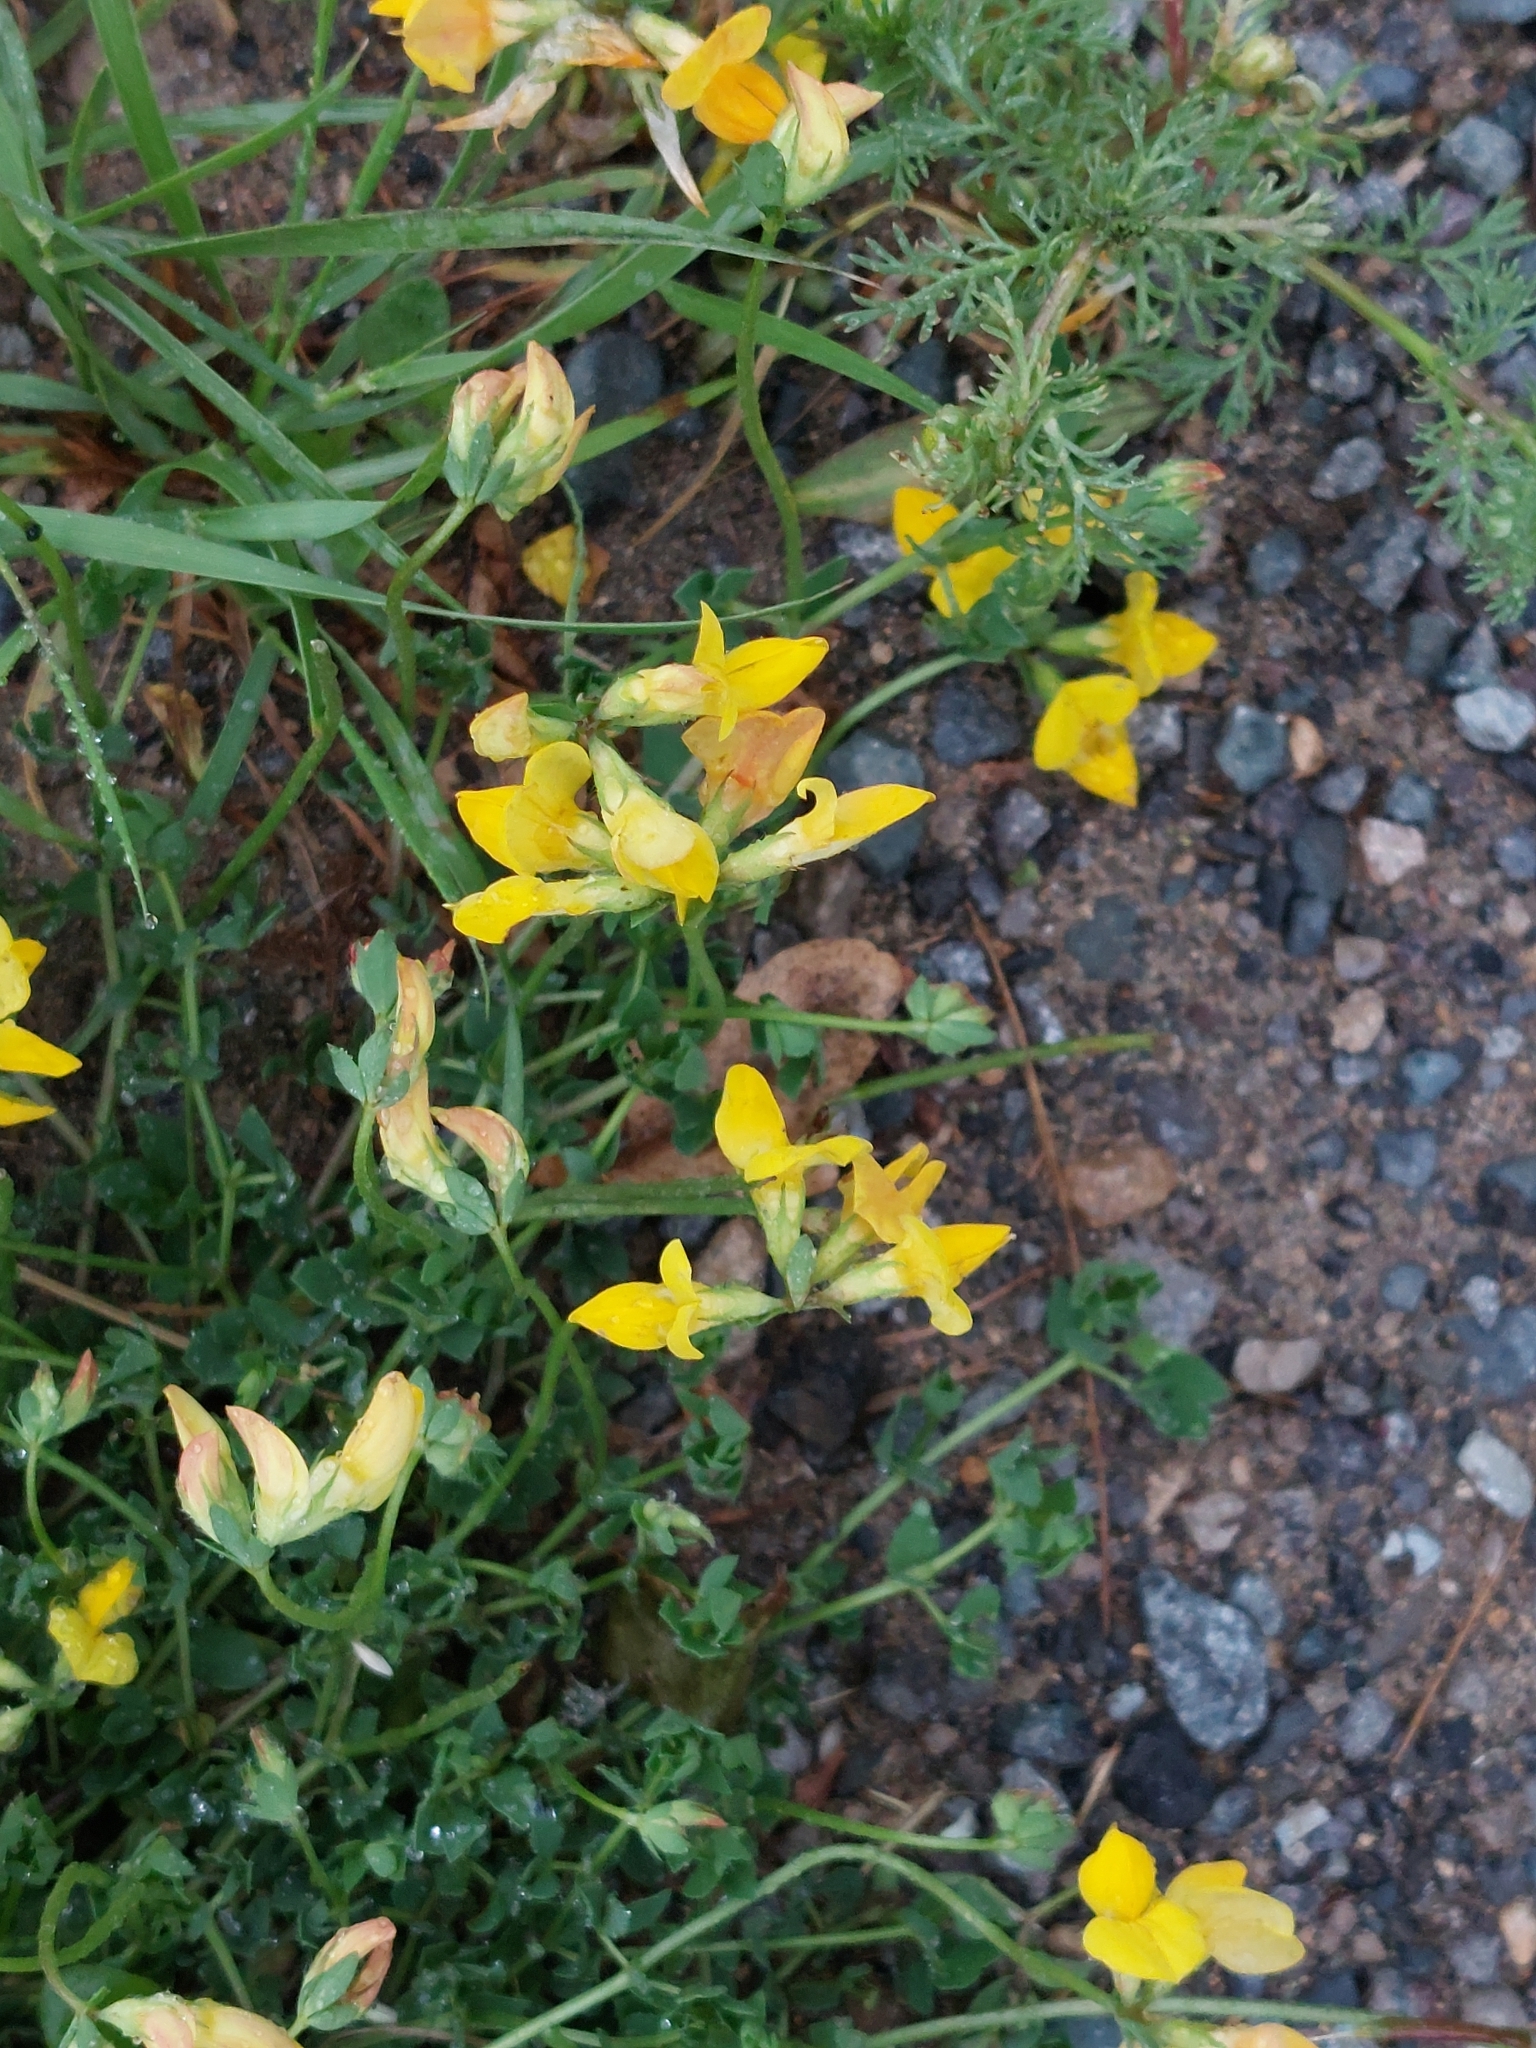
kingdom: Plantae
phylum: Tracheophyta
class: Magnoliopsida
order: Fabales
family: Fabaceae
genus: Lotus
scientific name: Lotus corniculatus
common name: Common bird's-foot-trefoil
